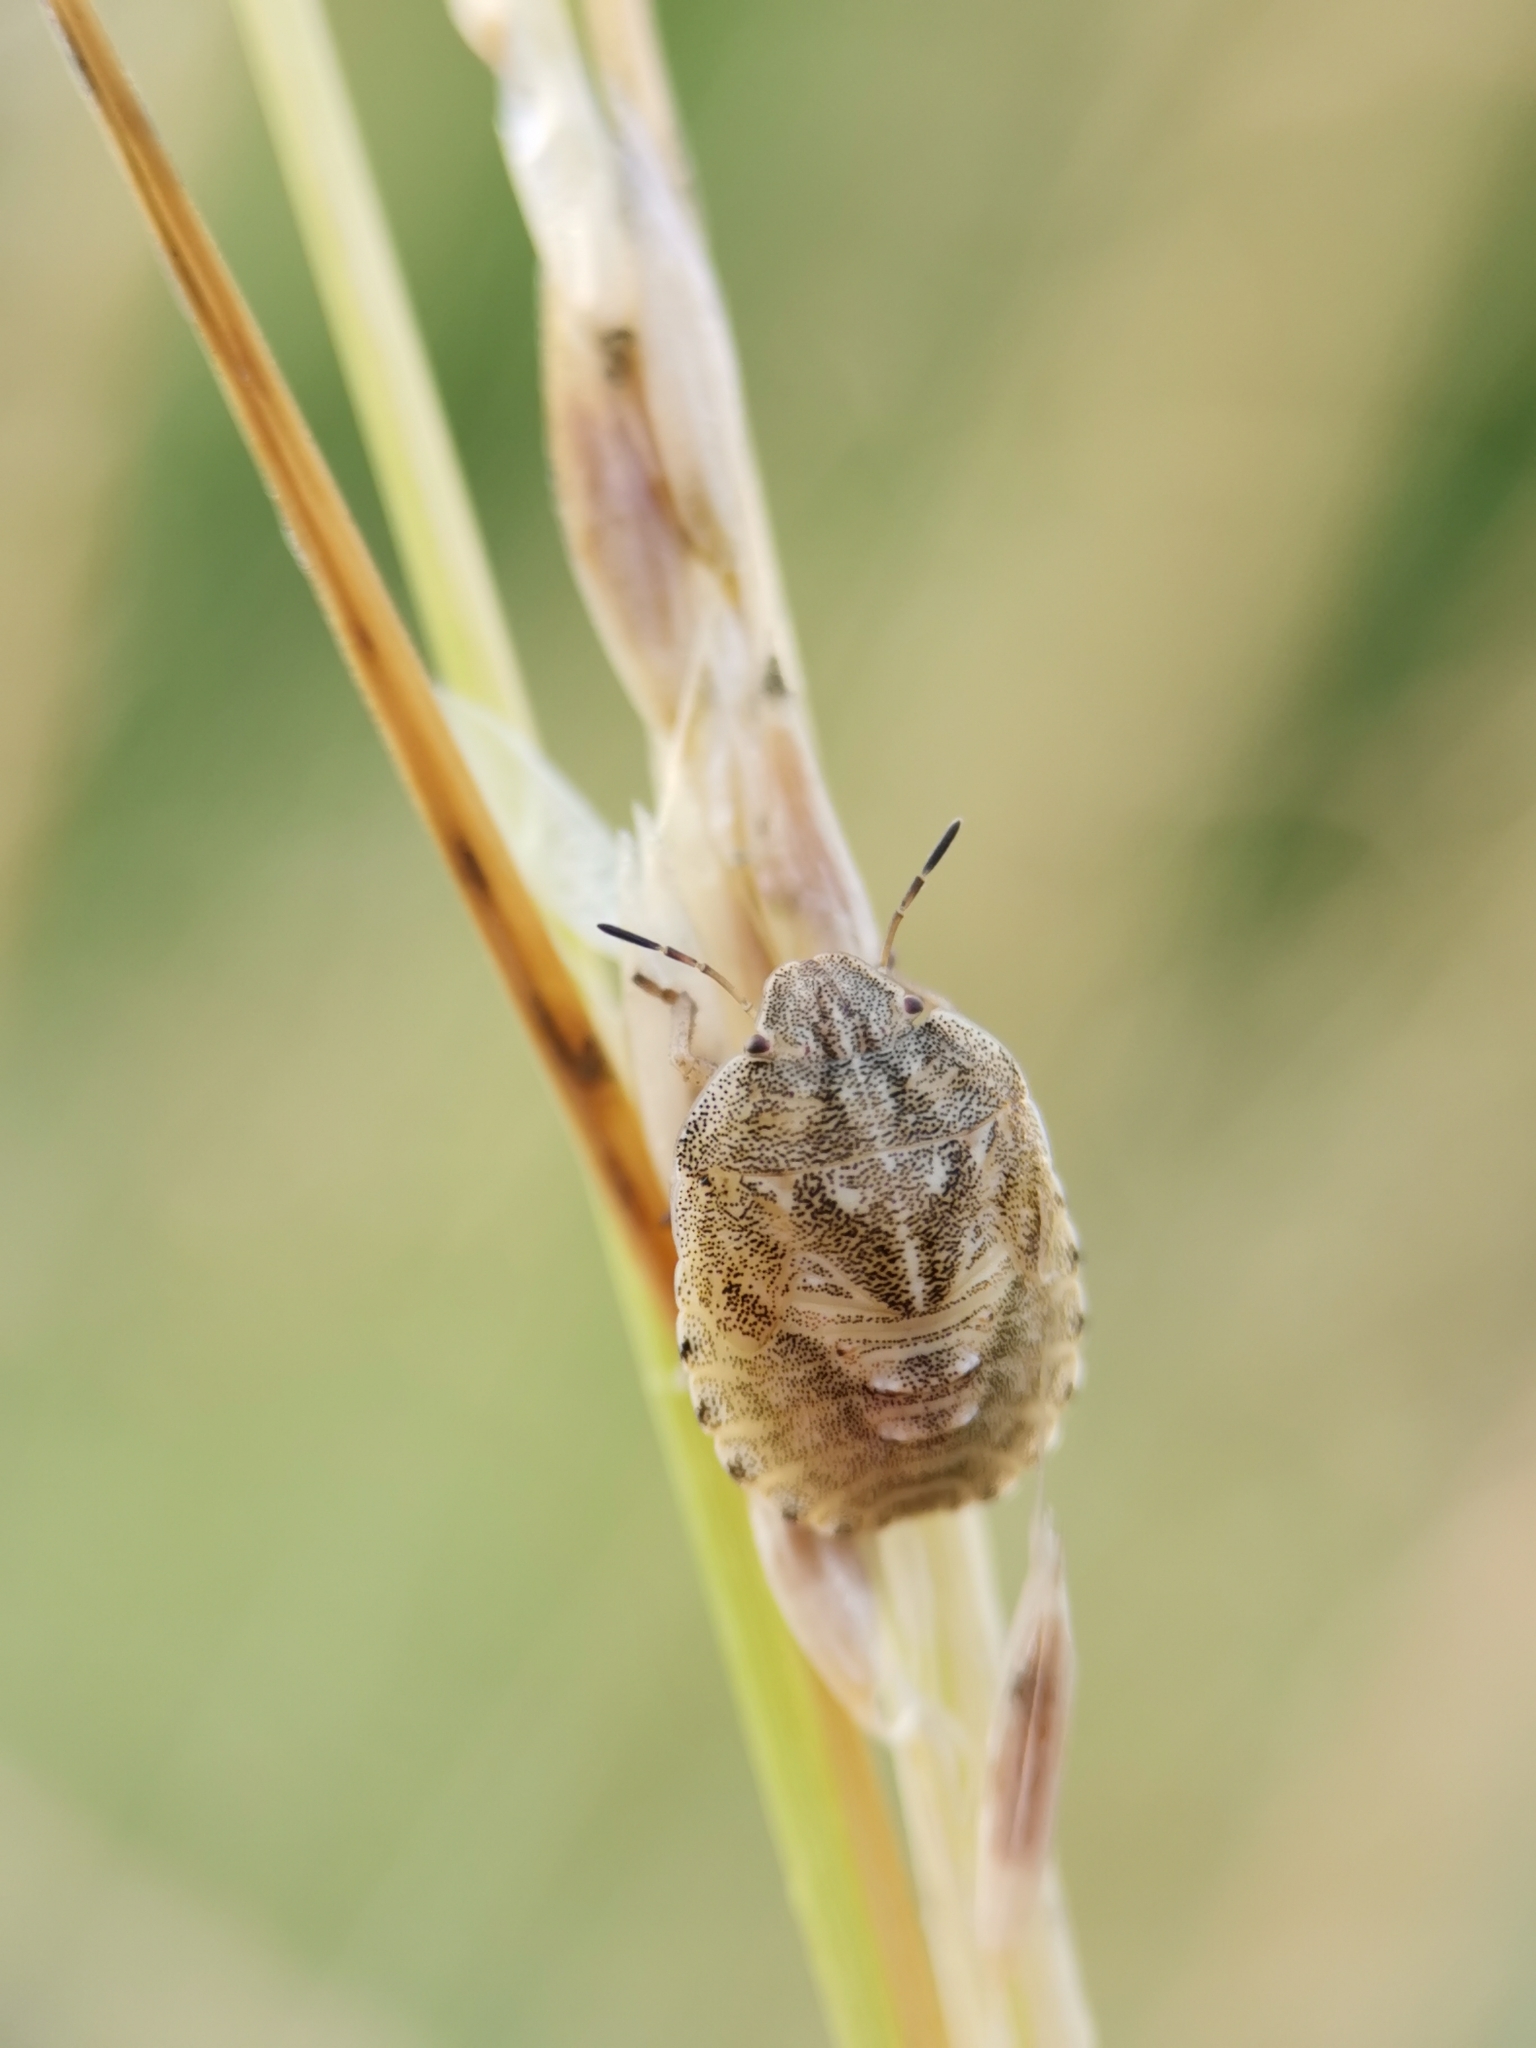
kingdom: Animalia
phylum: Arthropoda
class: Insecta
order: Hemiptera
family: Scutelleridae
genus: Eurygaster
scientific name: Eurygaster maura
